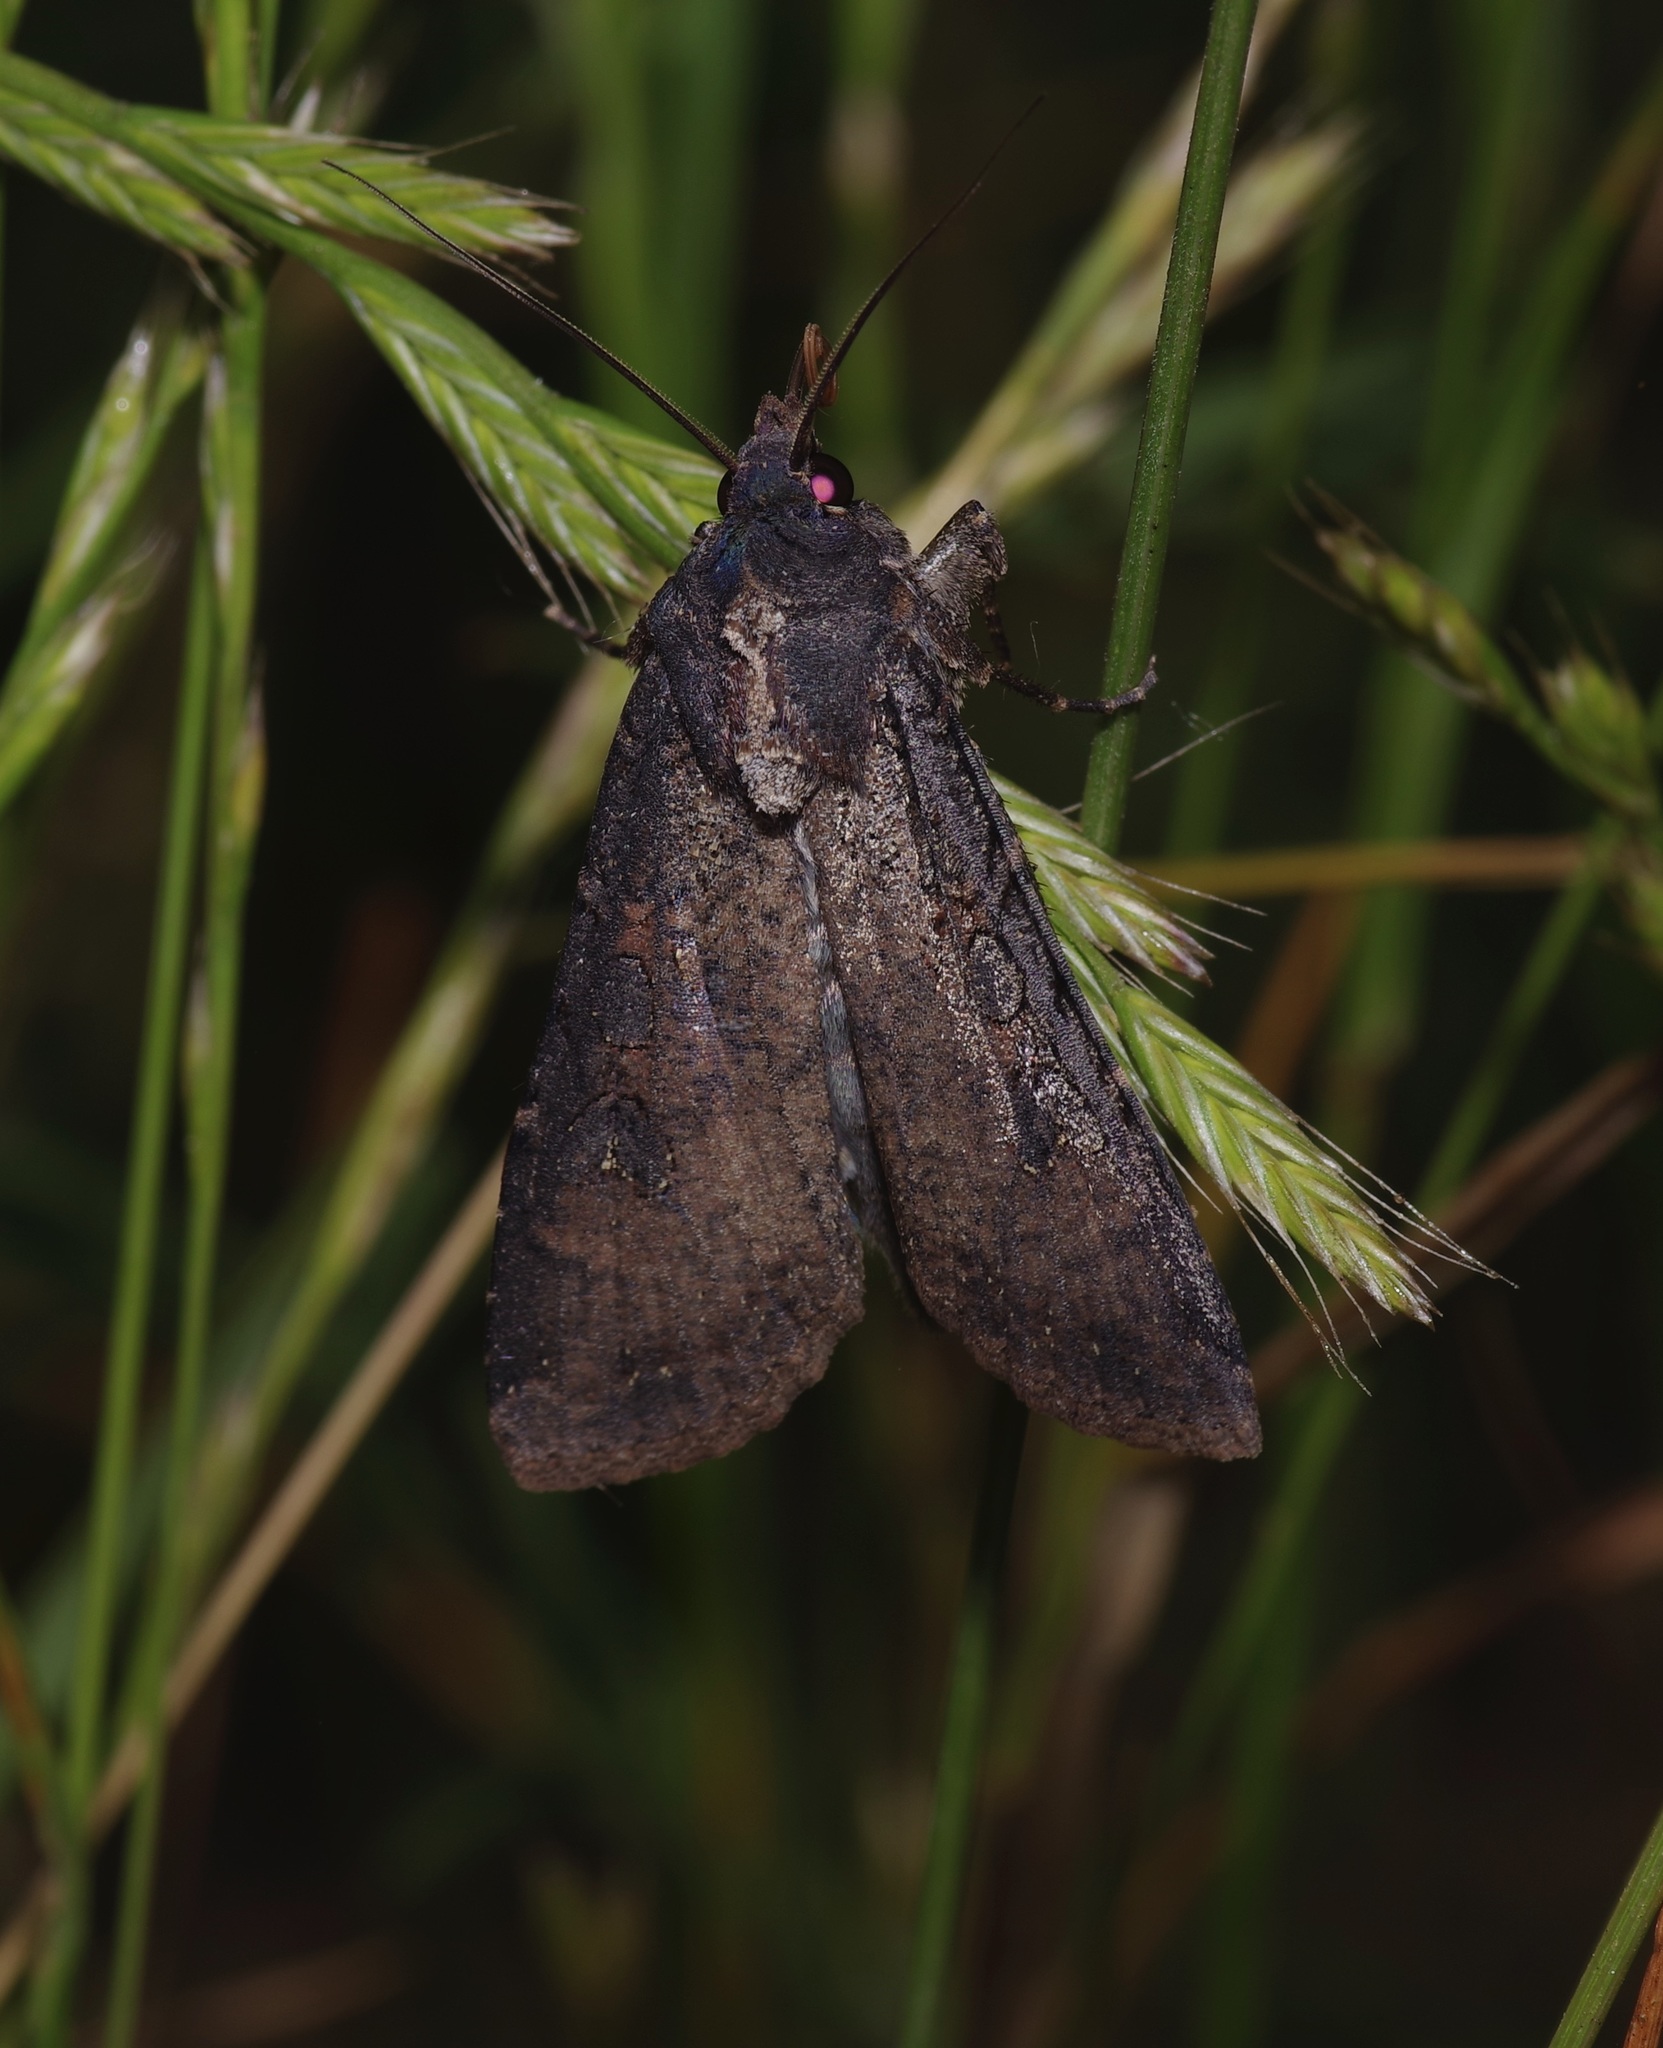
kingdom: Animalia
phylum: Arthropoda
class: Insecta
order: Lepidoptera
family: Noctuidae
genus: Peridroma
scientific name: Peridroma saucia
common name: Pearly underwing
